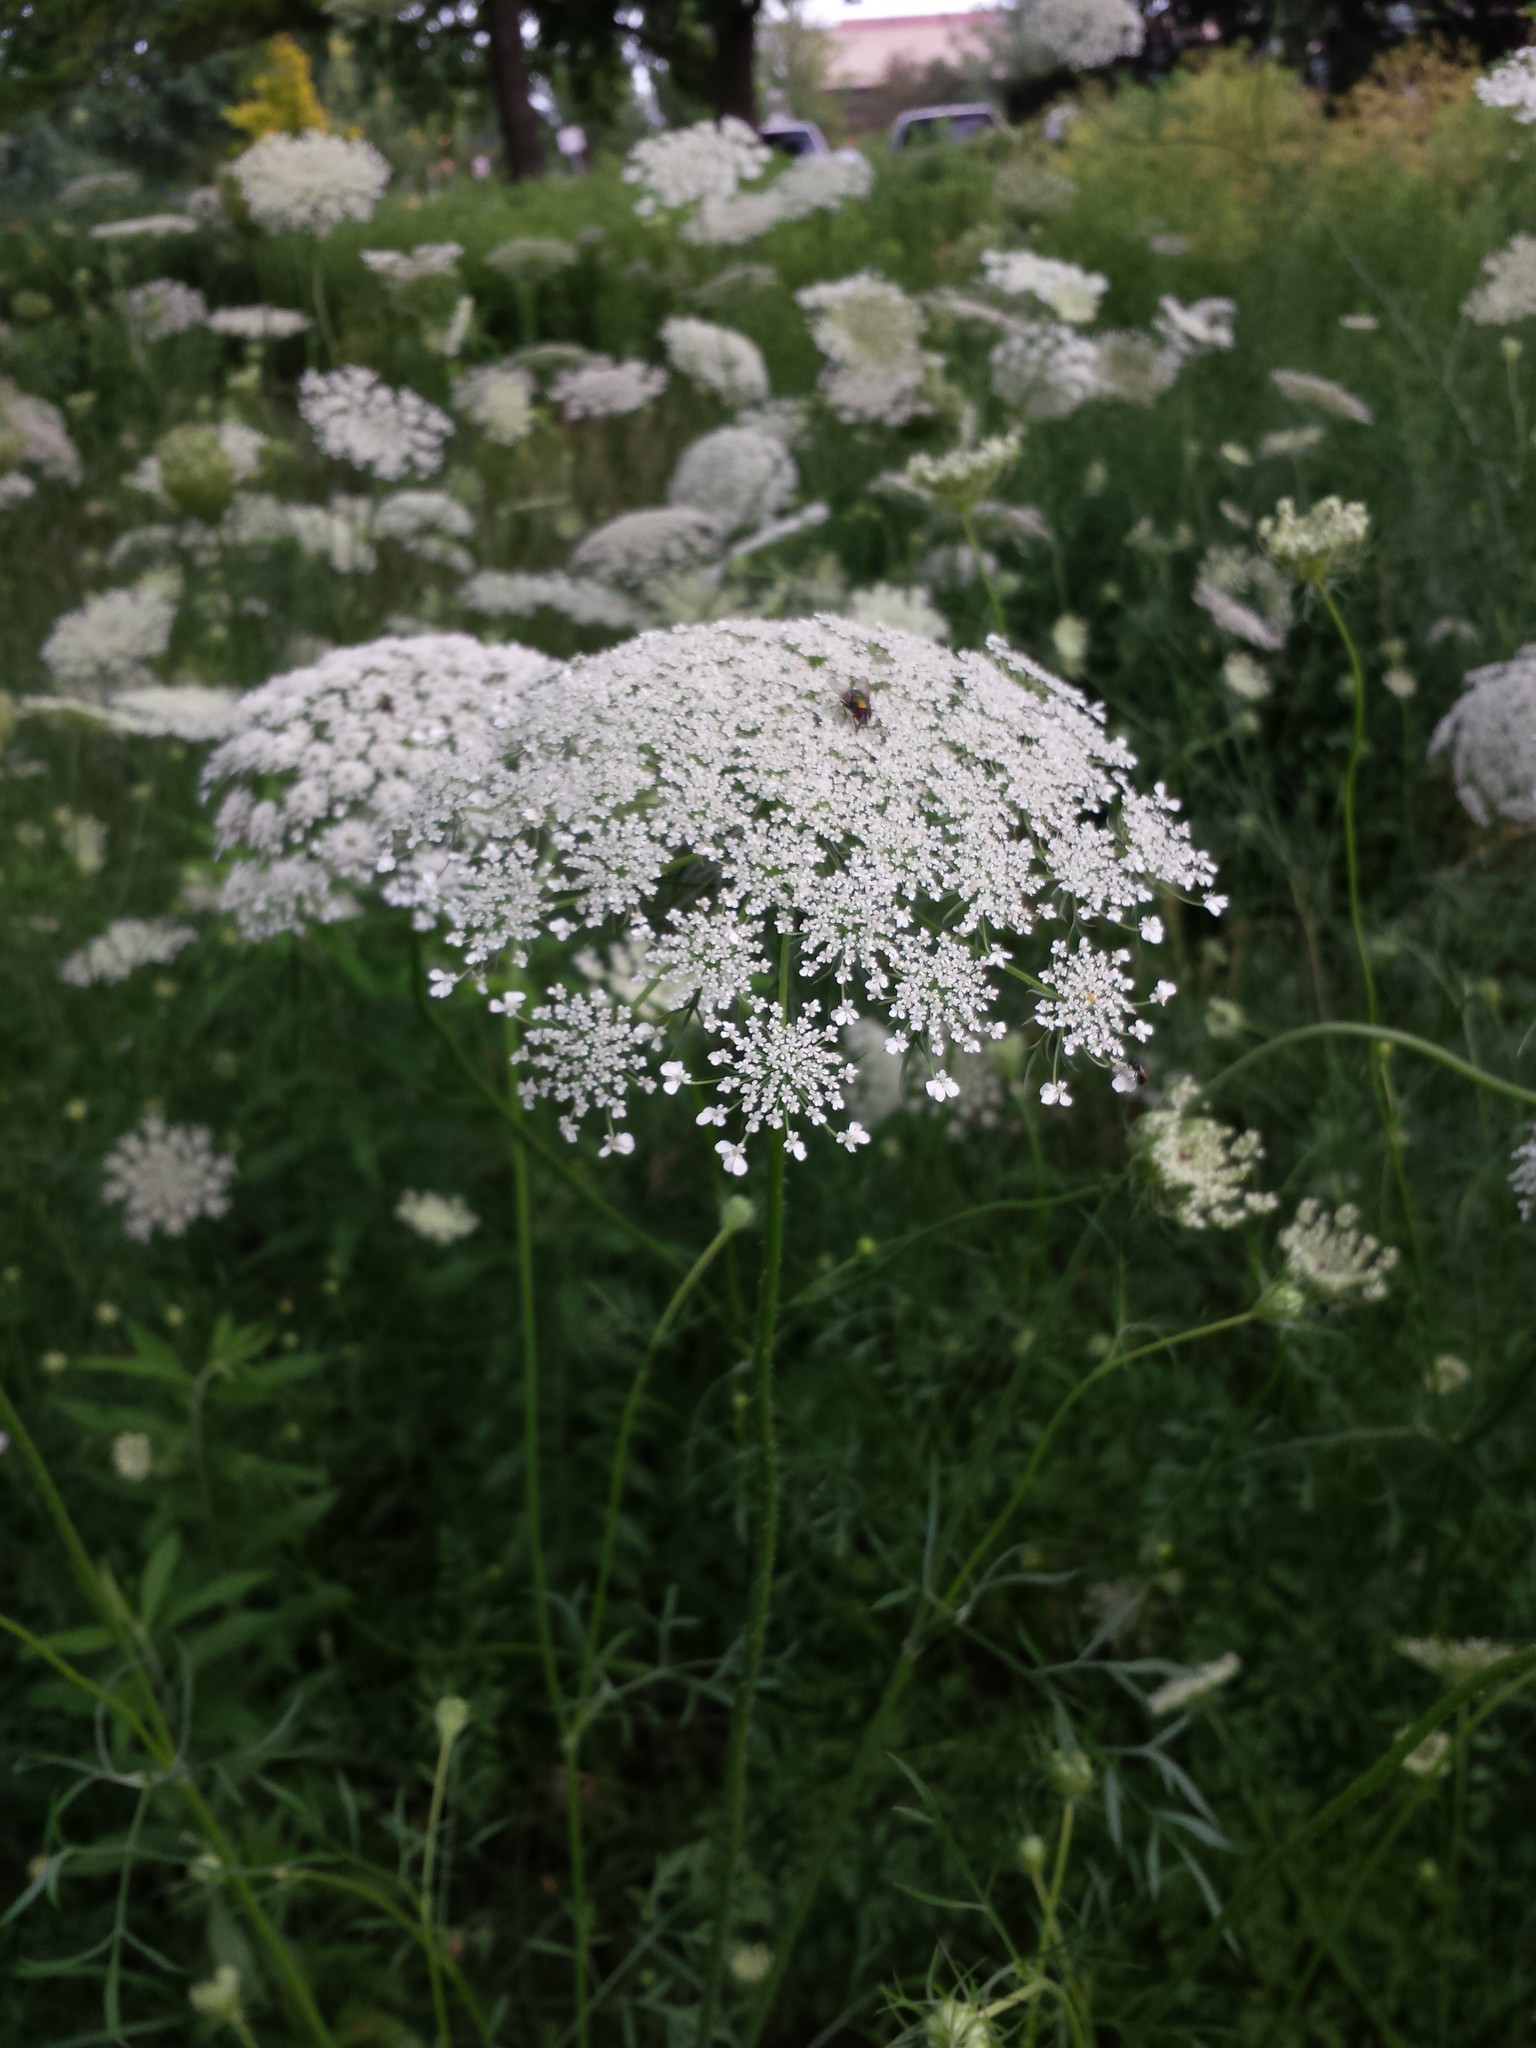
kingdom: Plantae
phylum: Tracheophyta
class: Magnoliopsida
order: Apiales
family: Apiaceae
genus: Daucus
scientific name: Daucus carota
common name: Wild carrot
